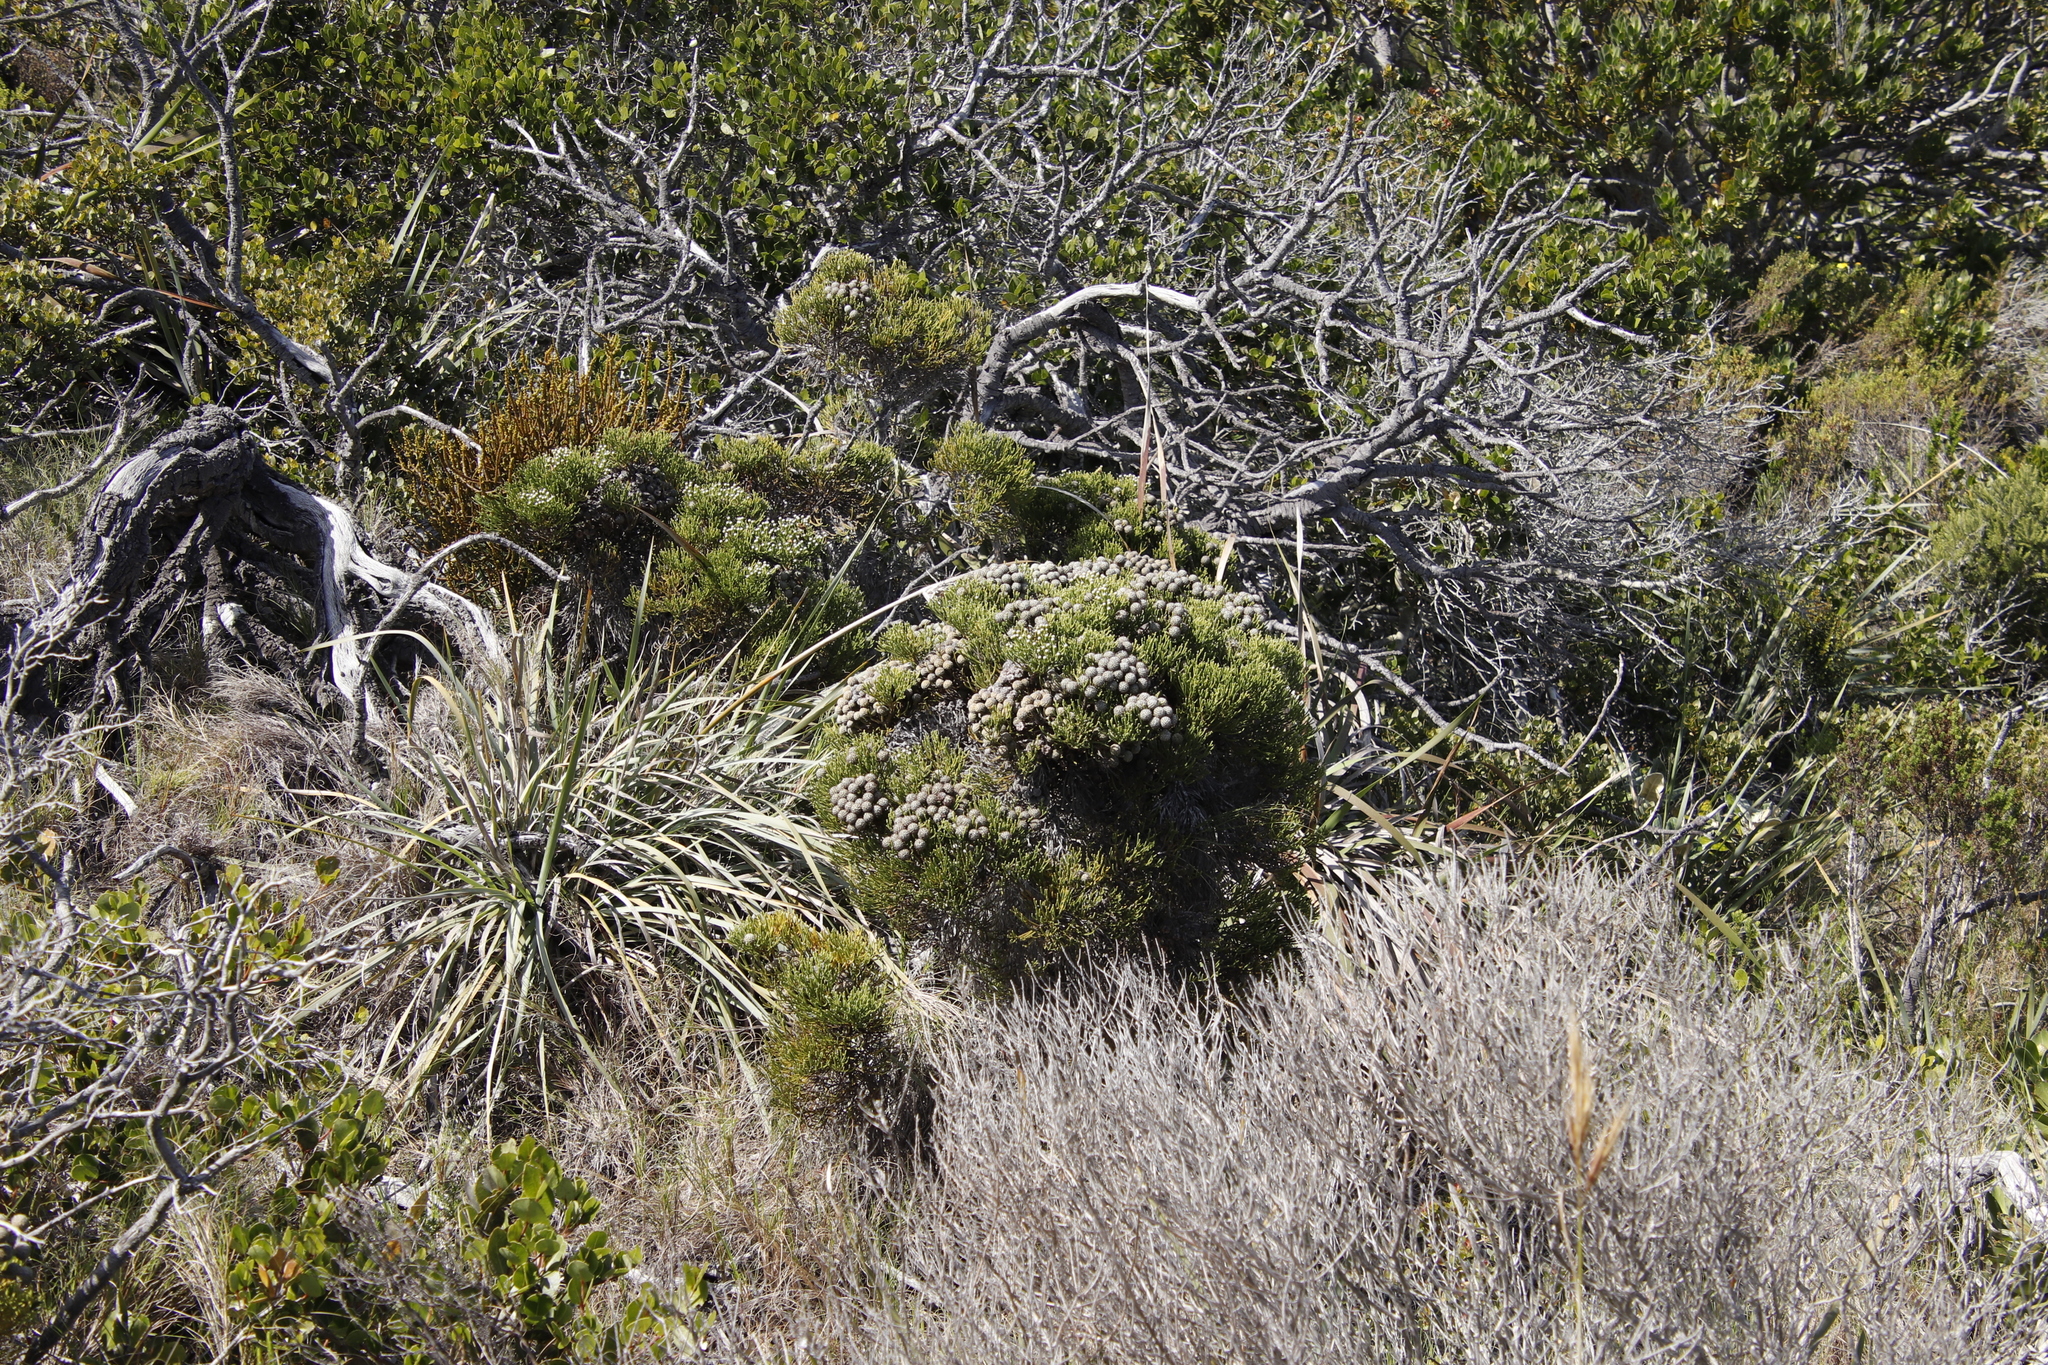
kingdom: Plantae
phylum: Tracheophyta
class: Magnoliopsida
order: Bruniales
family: Bruniaceae
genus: Brunia
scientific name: Brunia noduliflora
